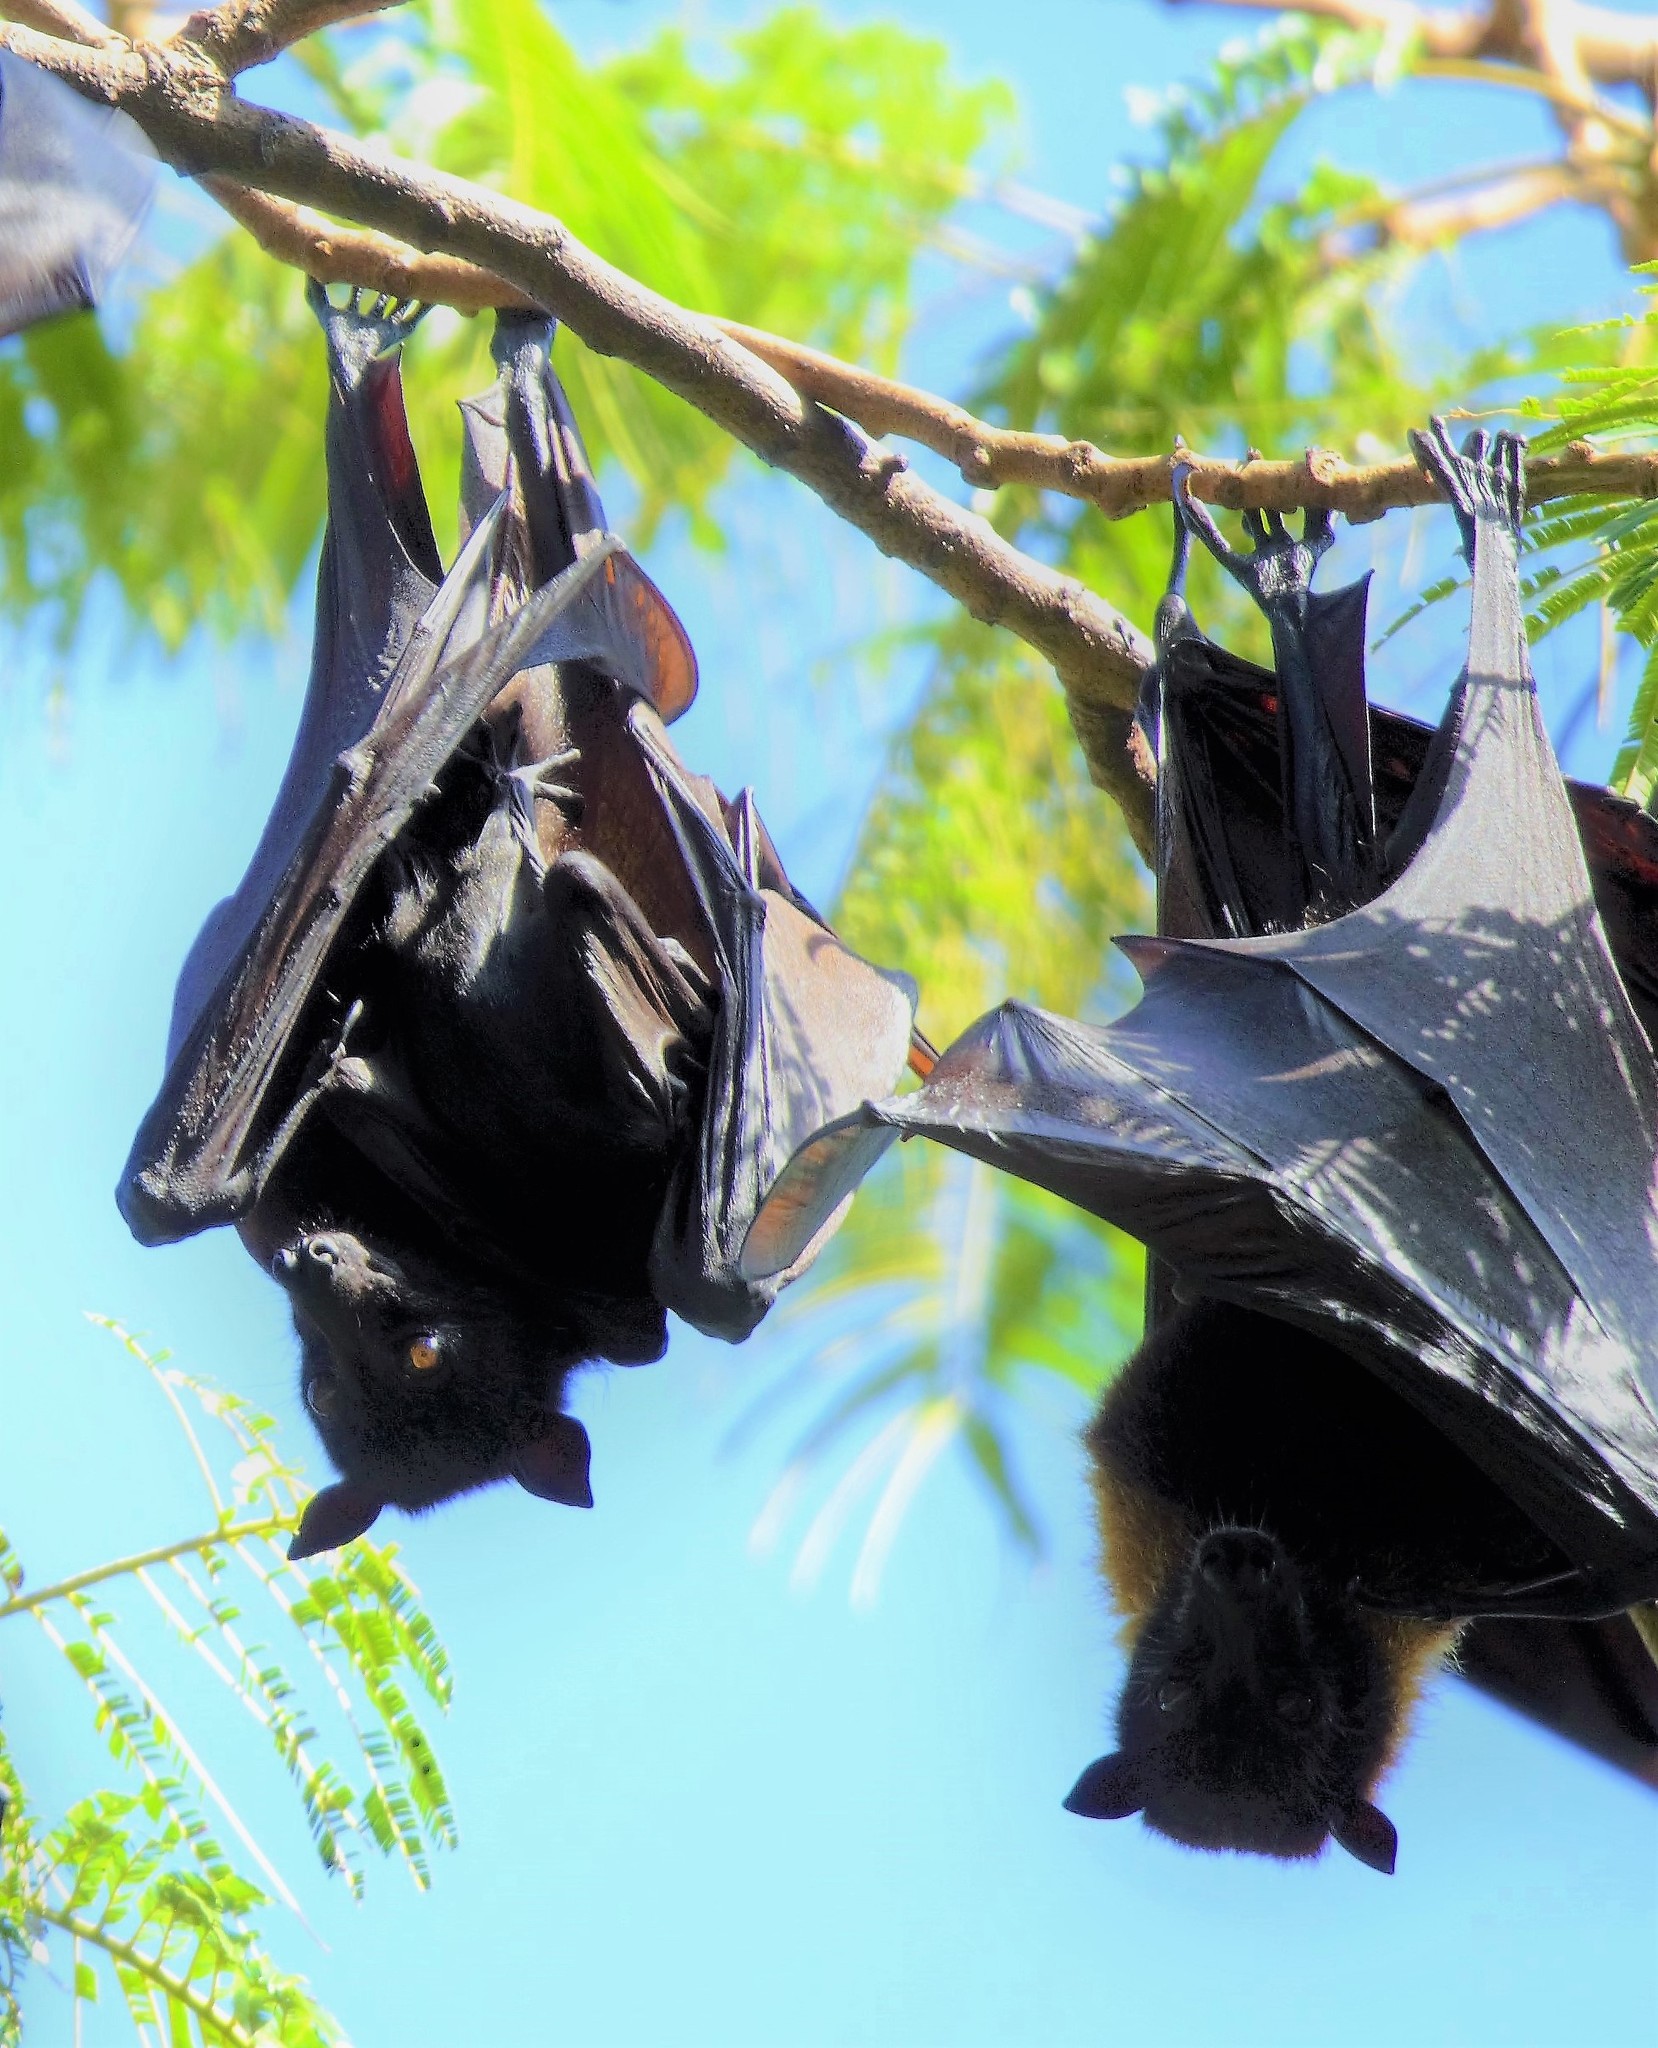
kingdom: Animalia
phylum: Chordata
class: Mammalia
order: Chiroptera
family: Pteropodidae
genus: Pteropus
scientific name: Pteropus vampyrus
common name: Large flying fox
